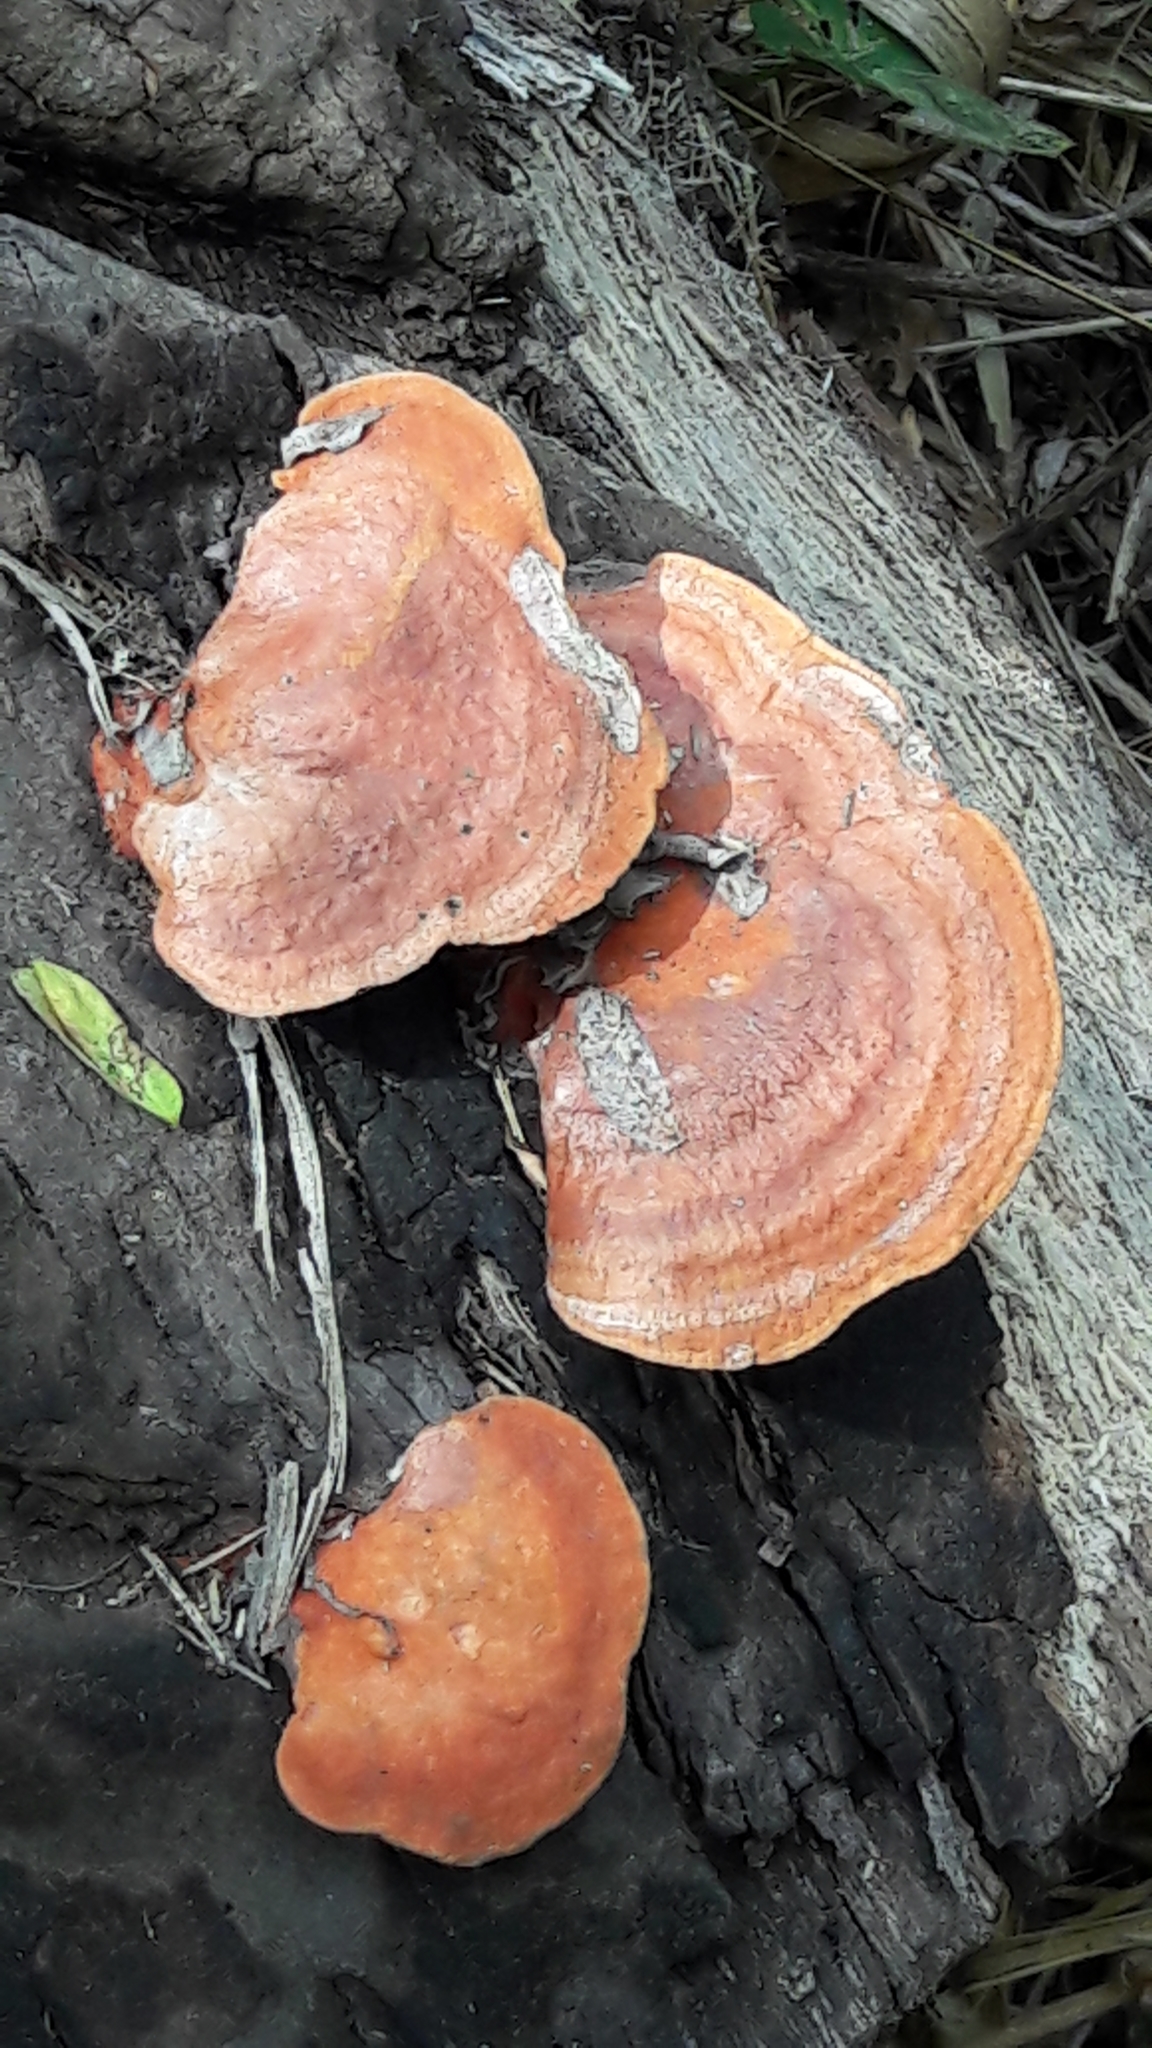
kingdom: Fungi
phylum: Basidiomycota
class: Agaricomycetes
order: Polyporales
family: Polyporaceae
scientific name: Polyporaceae
